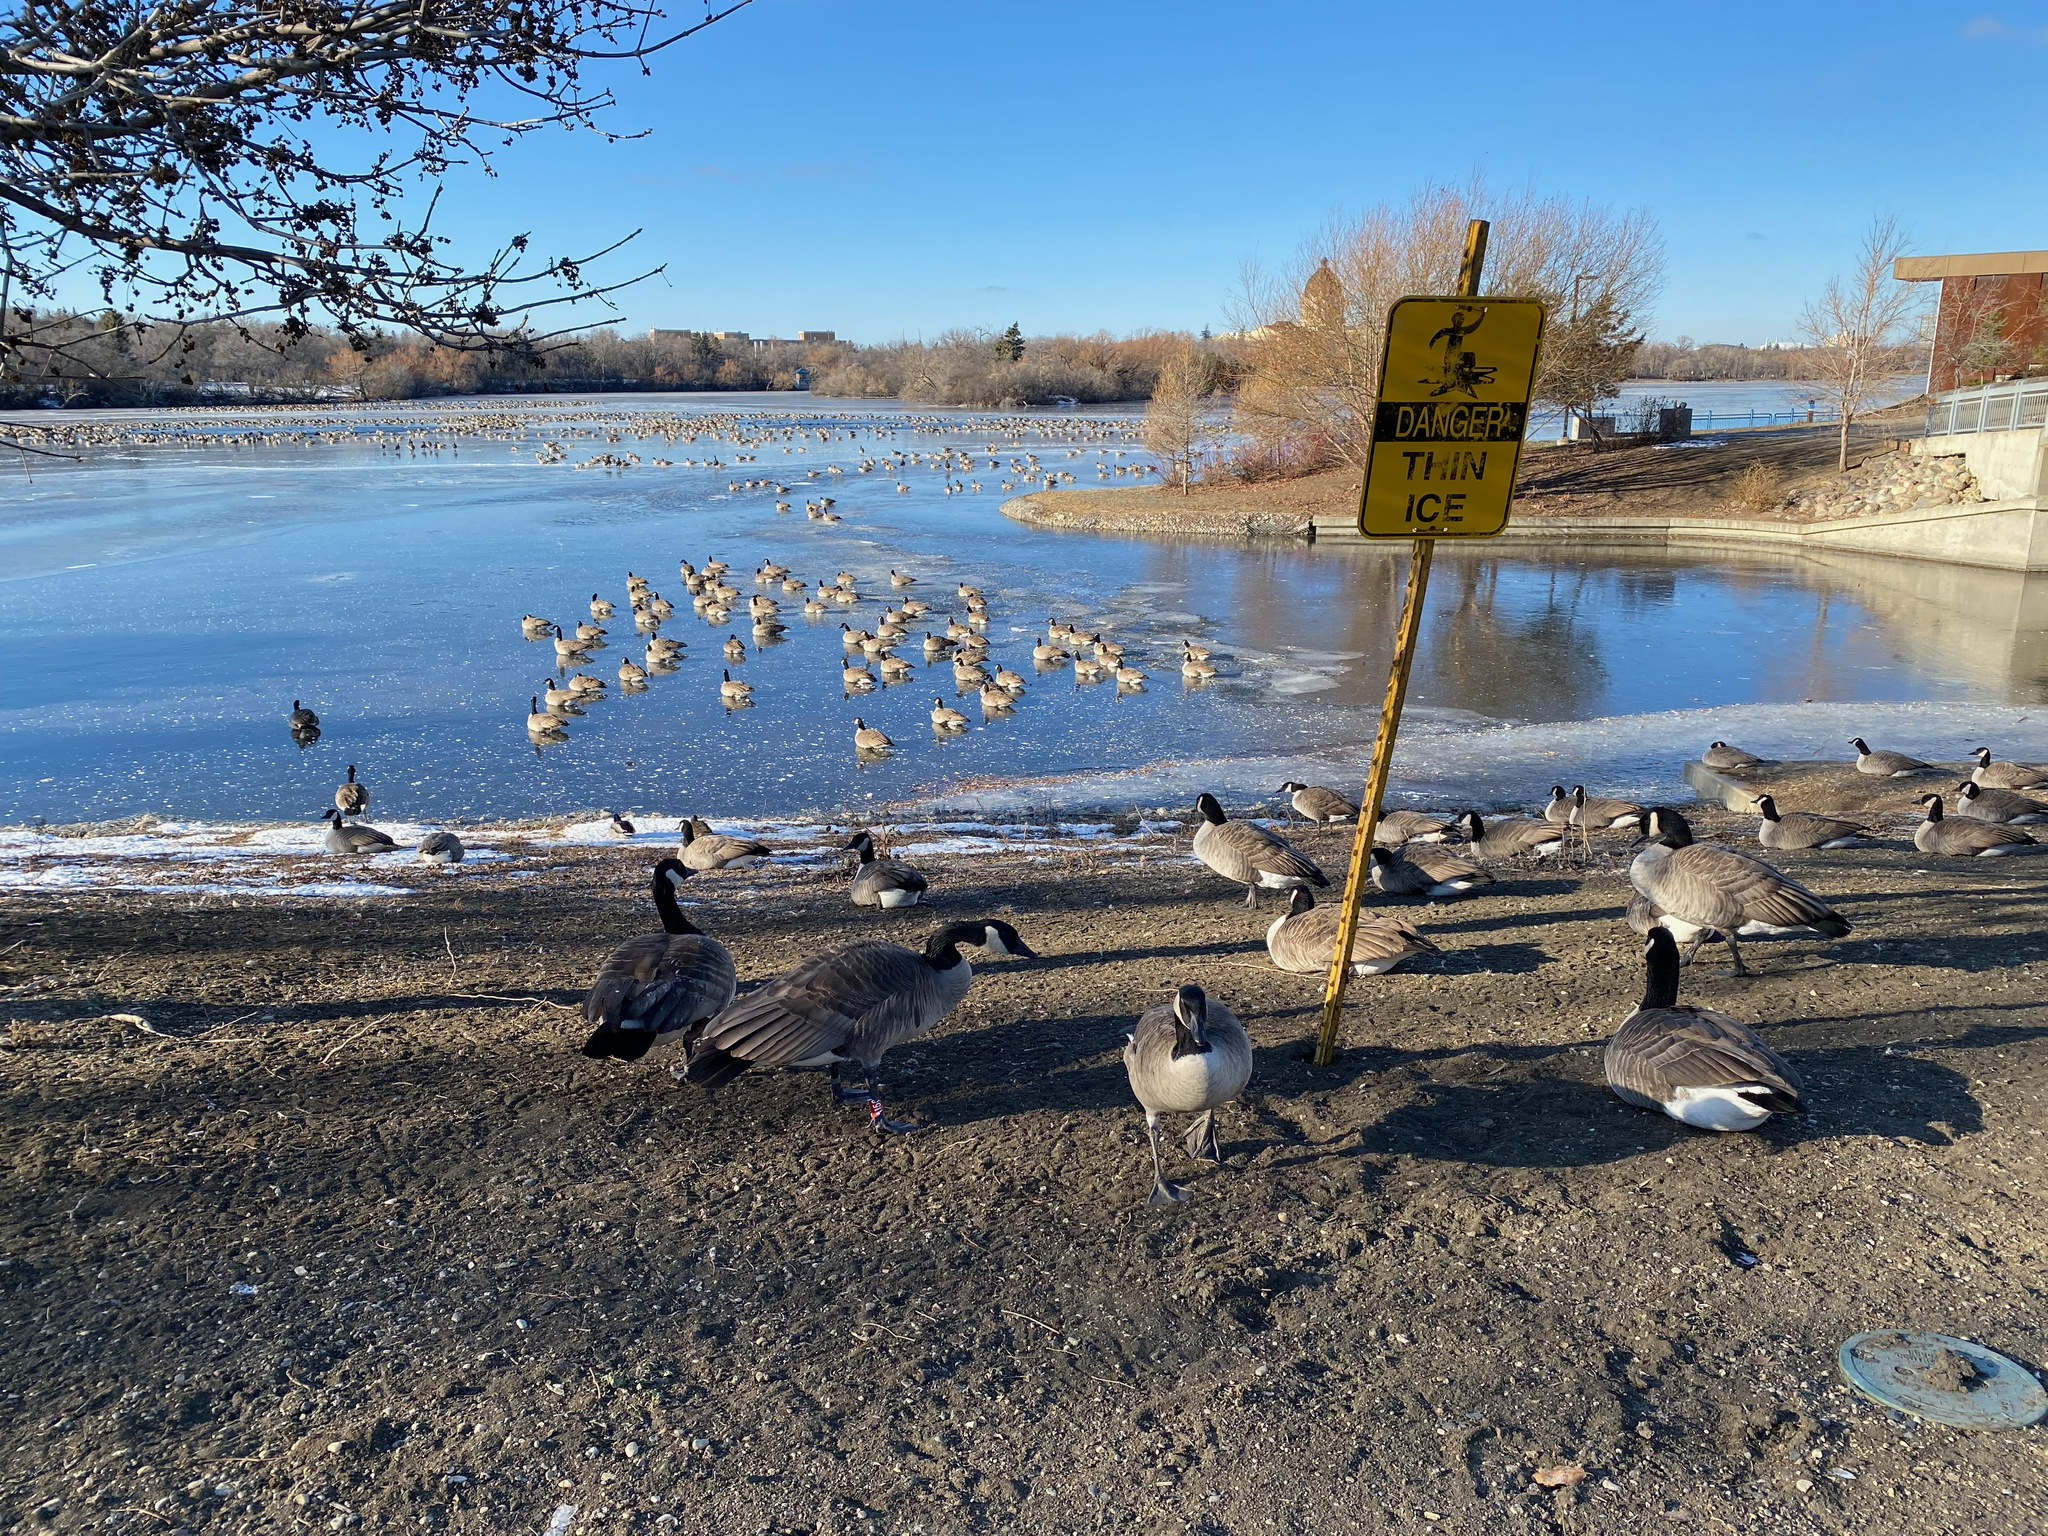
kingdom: Animalia
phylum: Chordata
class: Aves
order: Anseriformes
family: Anatidae
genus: Branta
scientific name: Branta canadensis
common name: Canada goose
